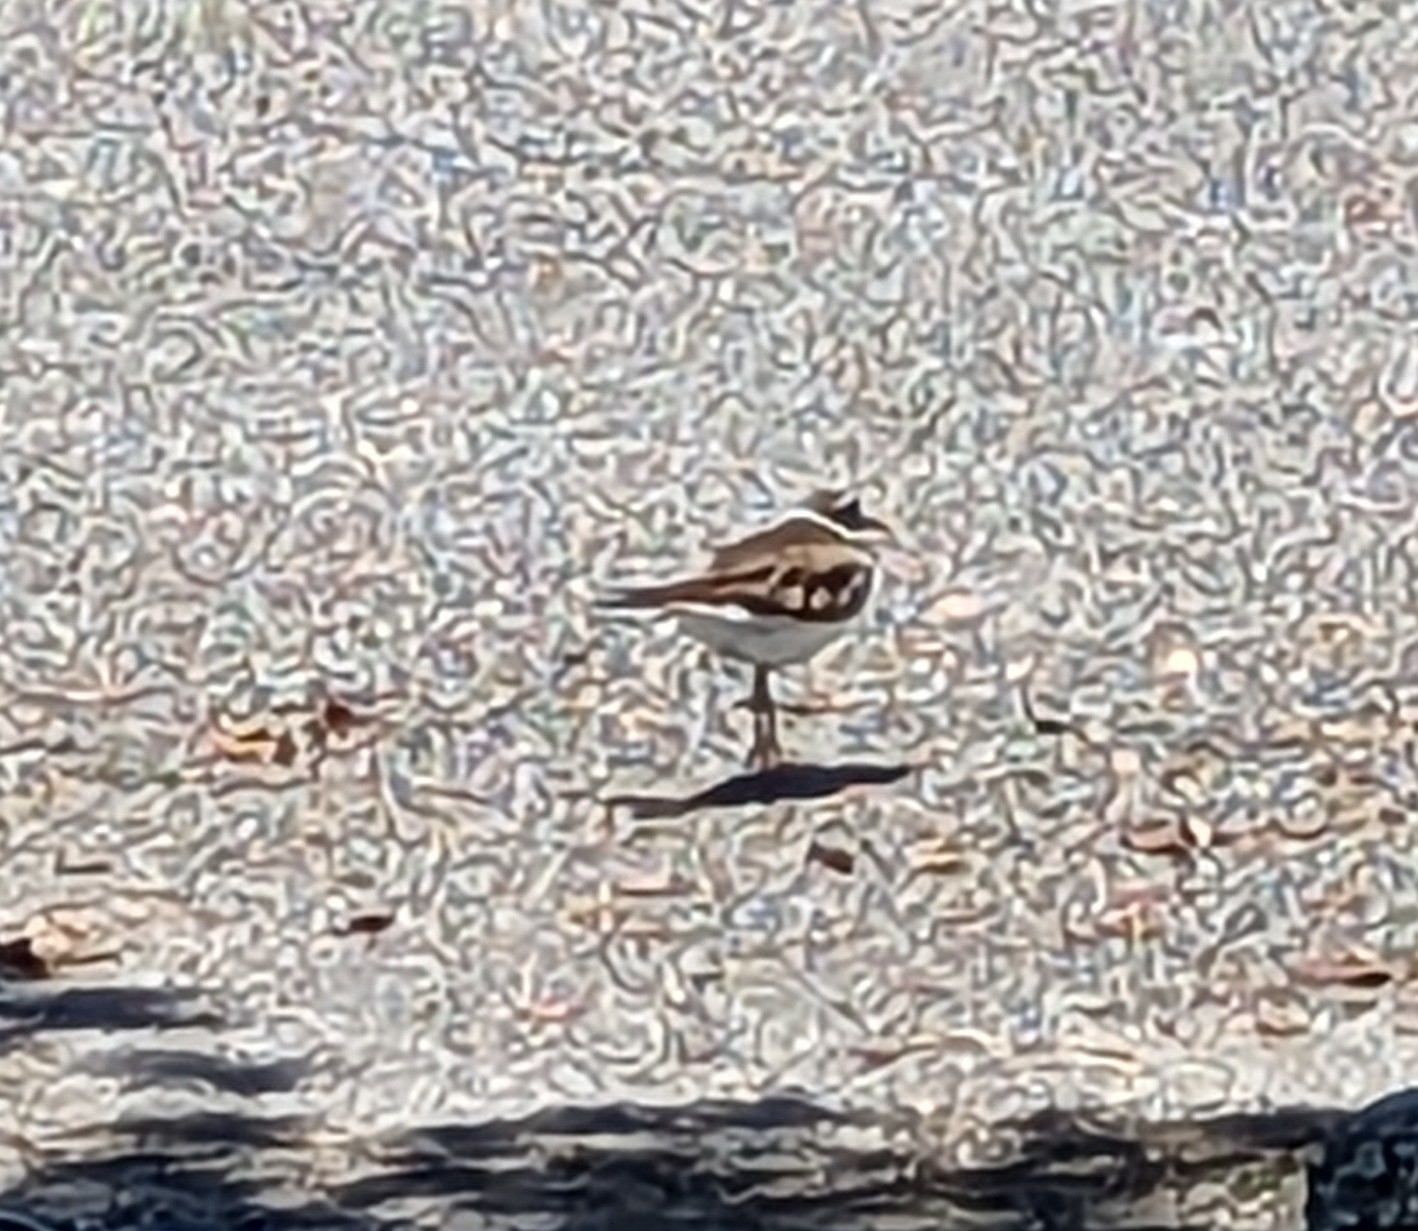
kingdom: Animalia
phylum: Chordata
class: Aves
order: Charadriiformes
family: Charadriidae
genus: Charadrius
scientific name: Charadrius vociferus
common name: Killdeer
